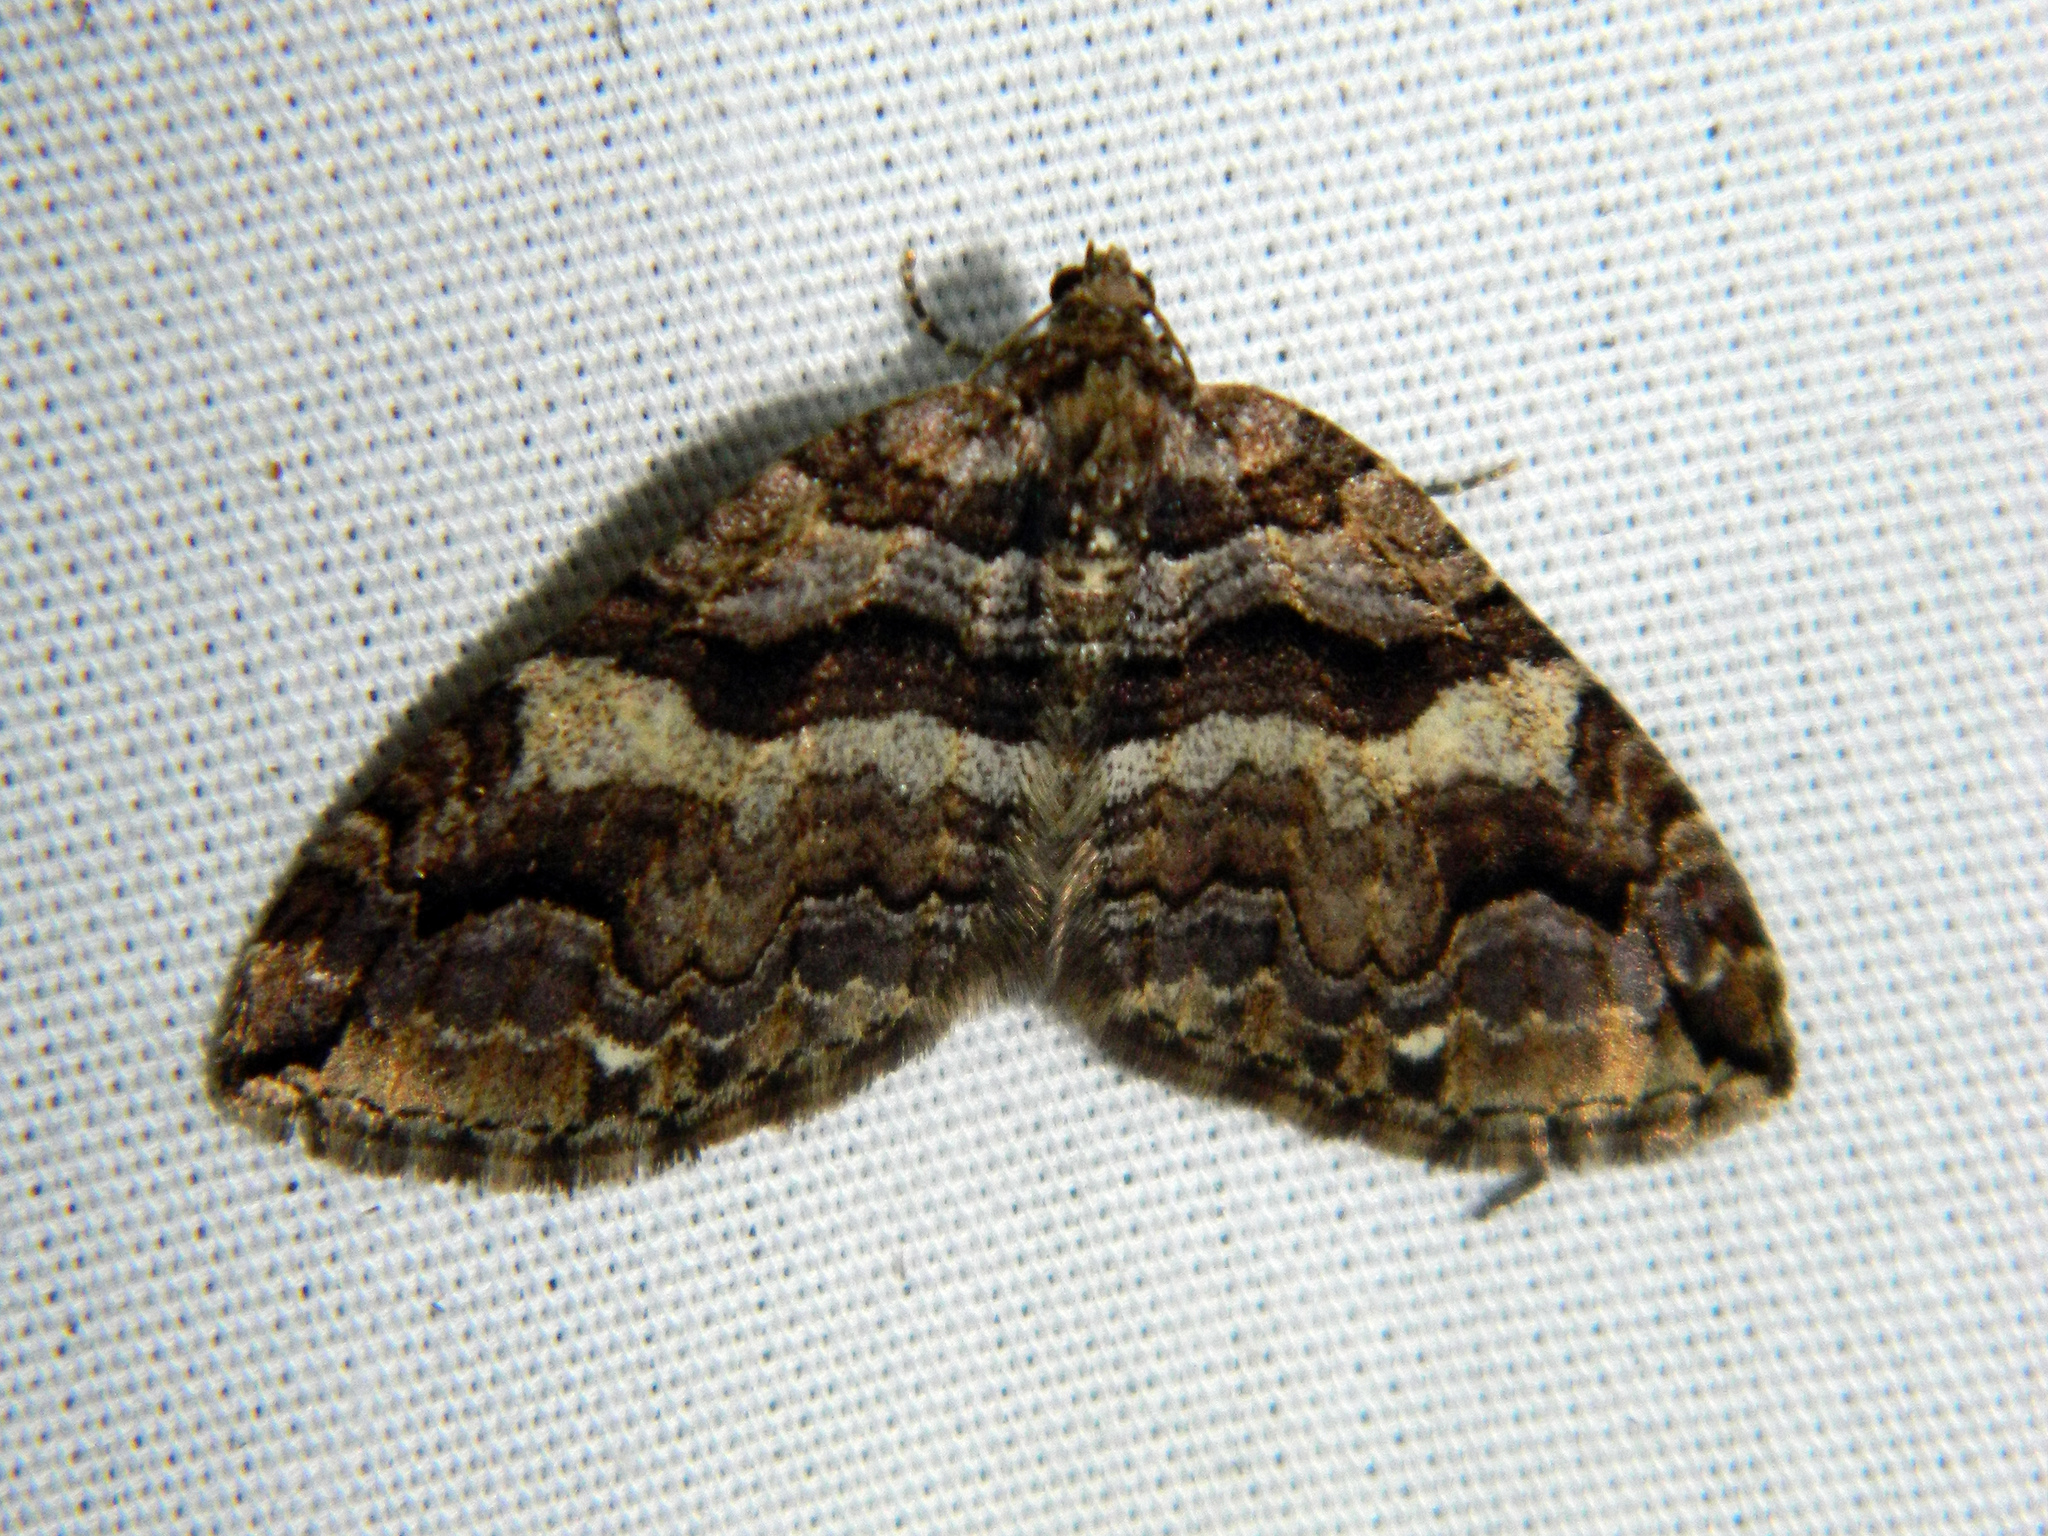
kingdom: Animalia
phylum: Arthropoda
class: Insecta
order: Lepidoptera
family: Geometridae
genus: Anticlea
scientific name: Anticlea vasiliata
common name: Variable carpet
